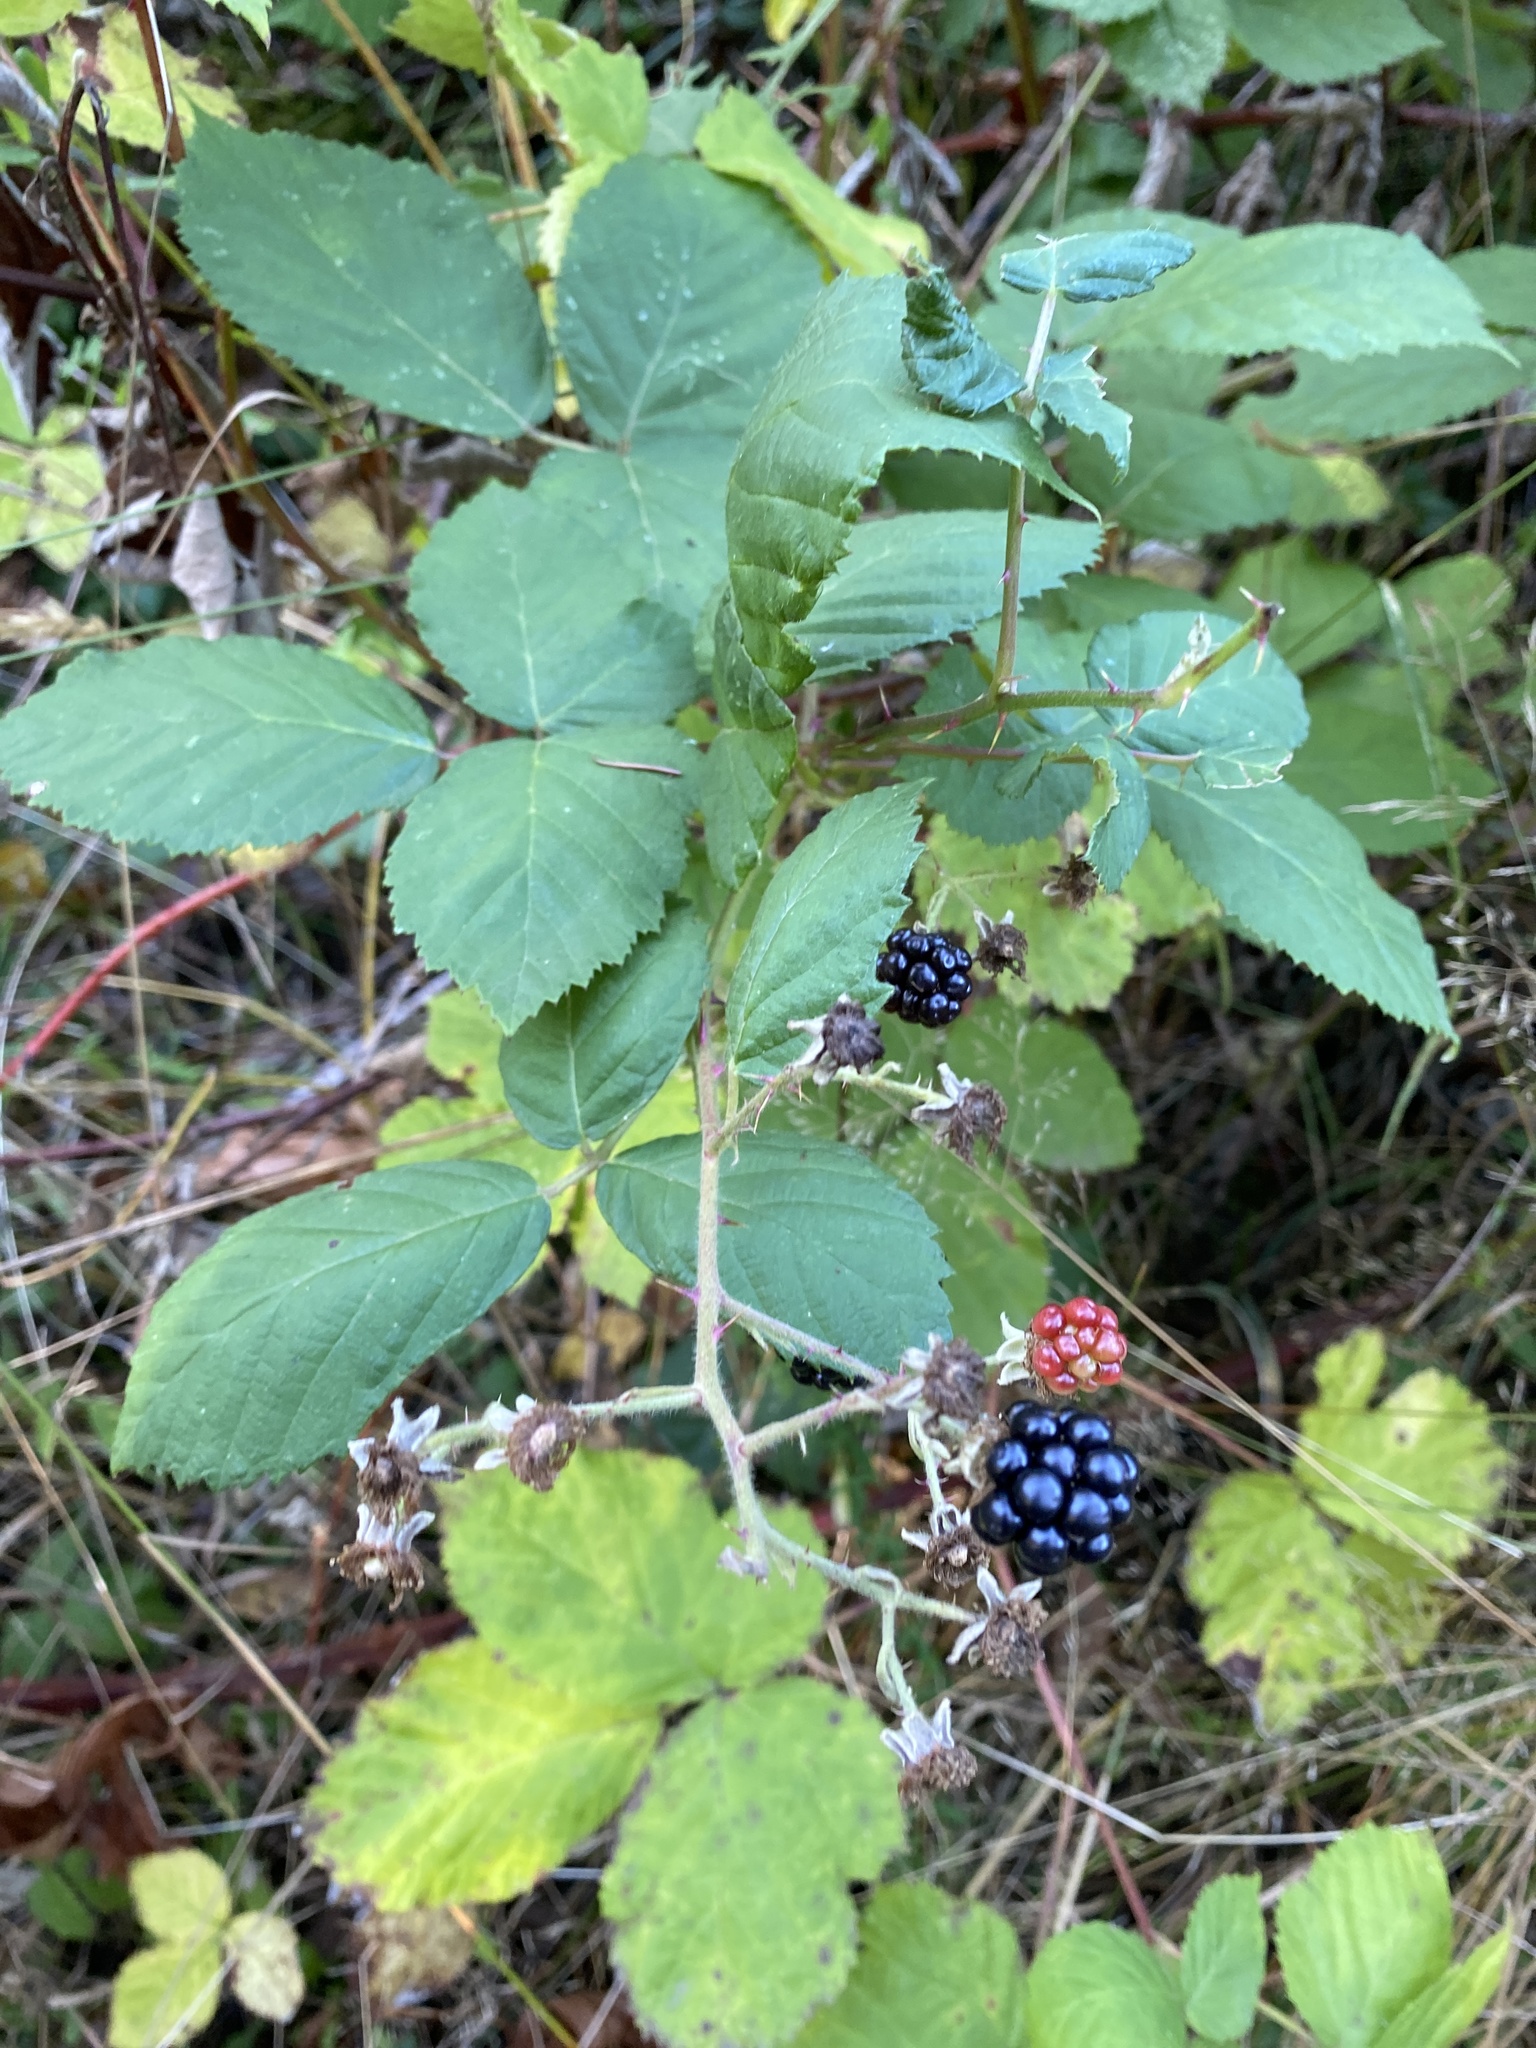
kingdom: Plantae
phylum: Tracheophyta
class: Magnoliopsida
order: Rosales
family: Rosaceae
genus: Rubus
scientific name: Rubus bifrons
